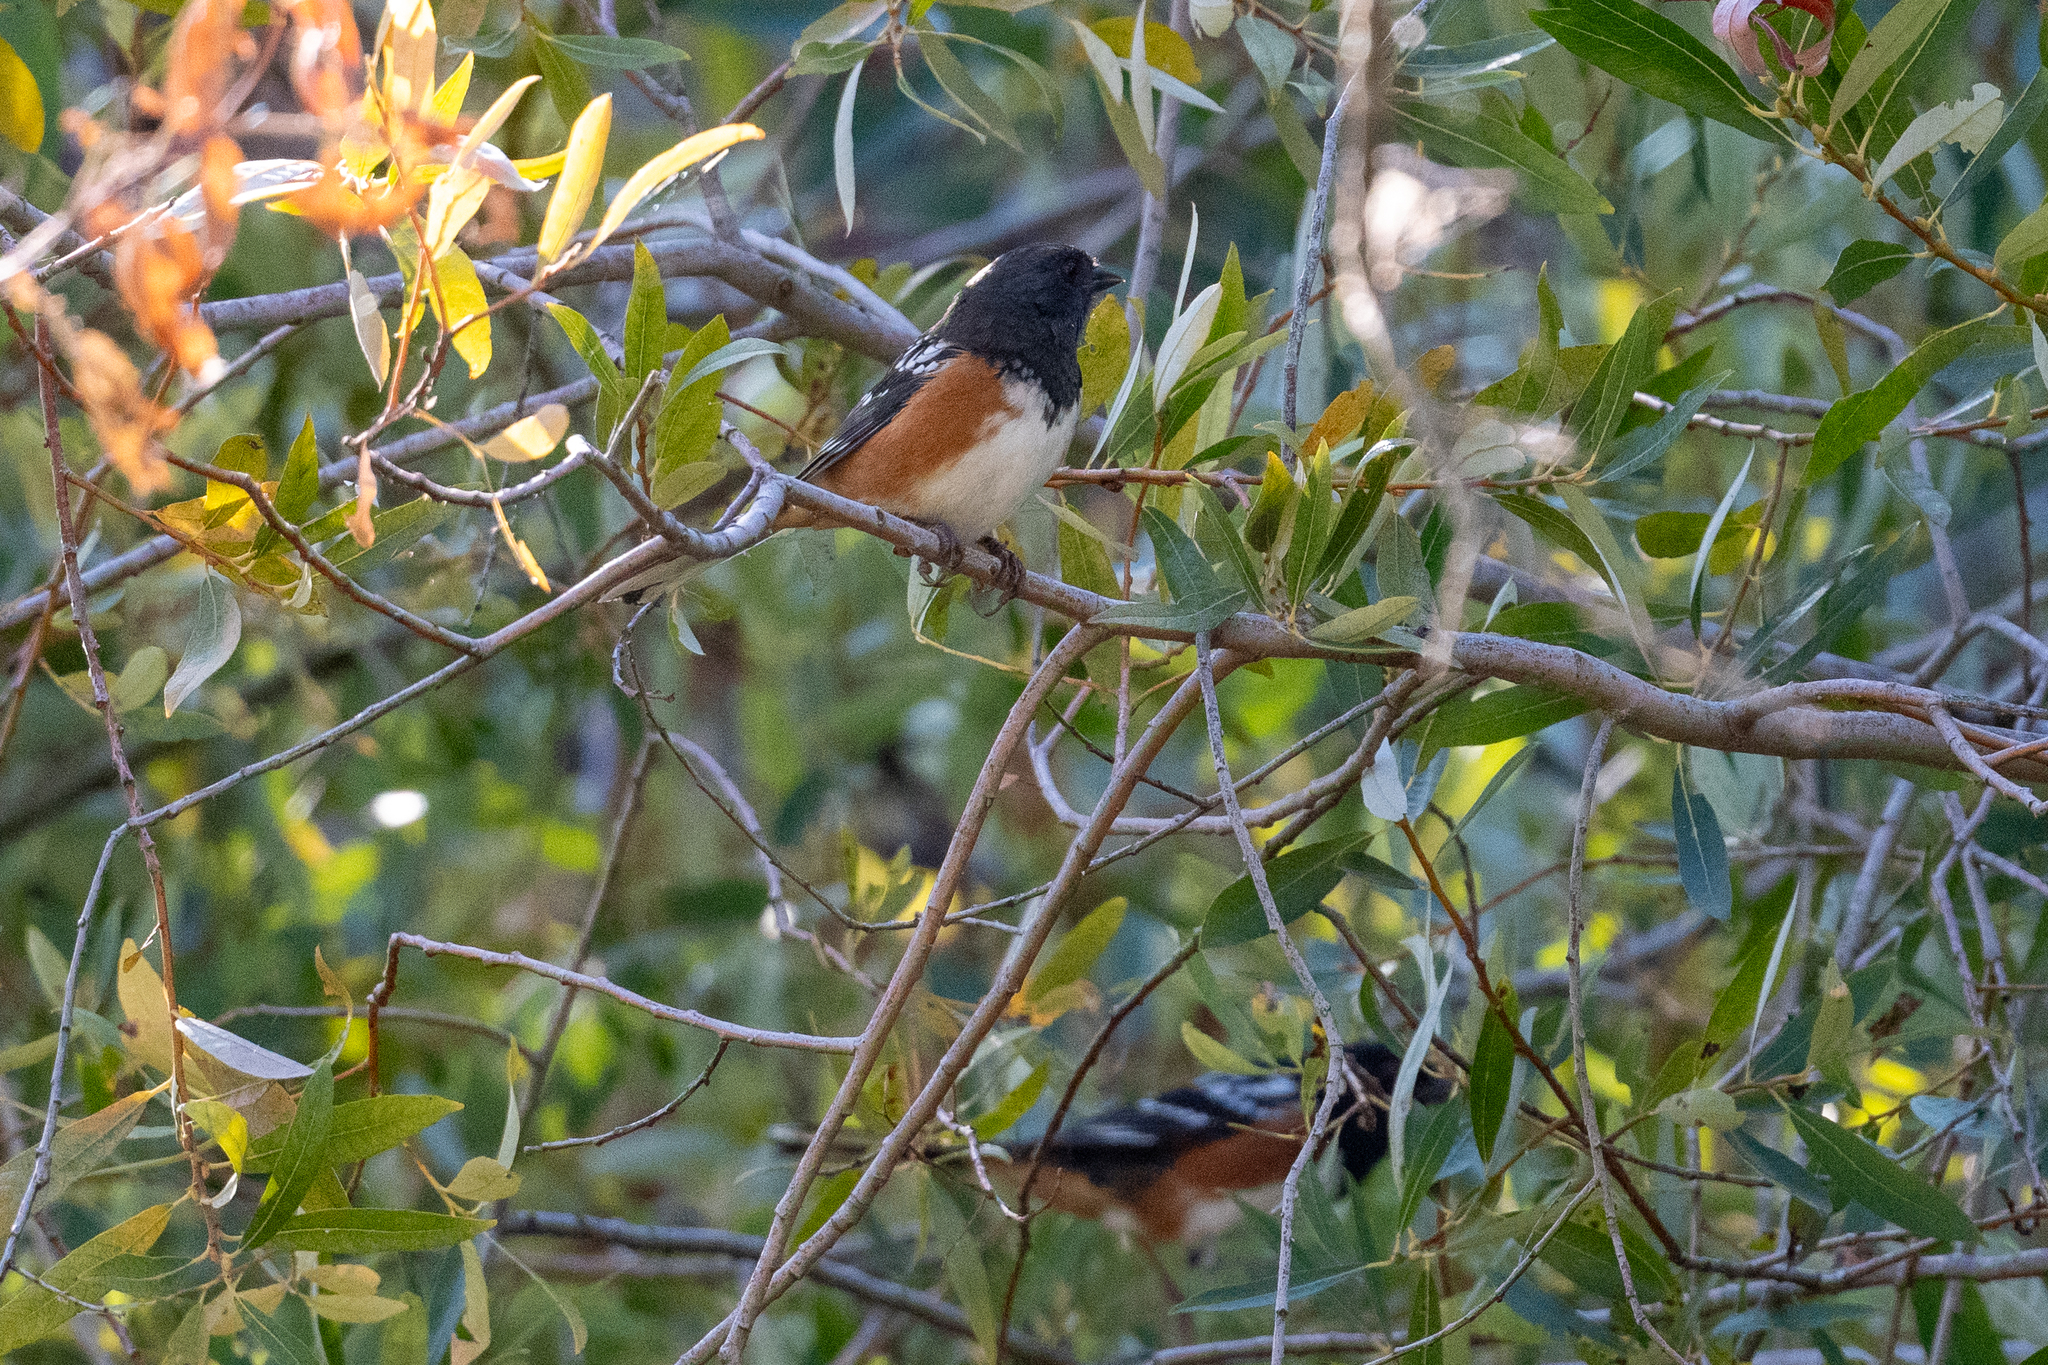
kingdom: Animalia
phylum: Chordata
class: Aves
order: Passeriformes
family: Passerellidae
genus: Pipilo
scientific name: Pipilo maculatus
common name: Spotted towhee
